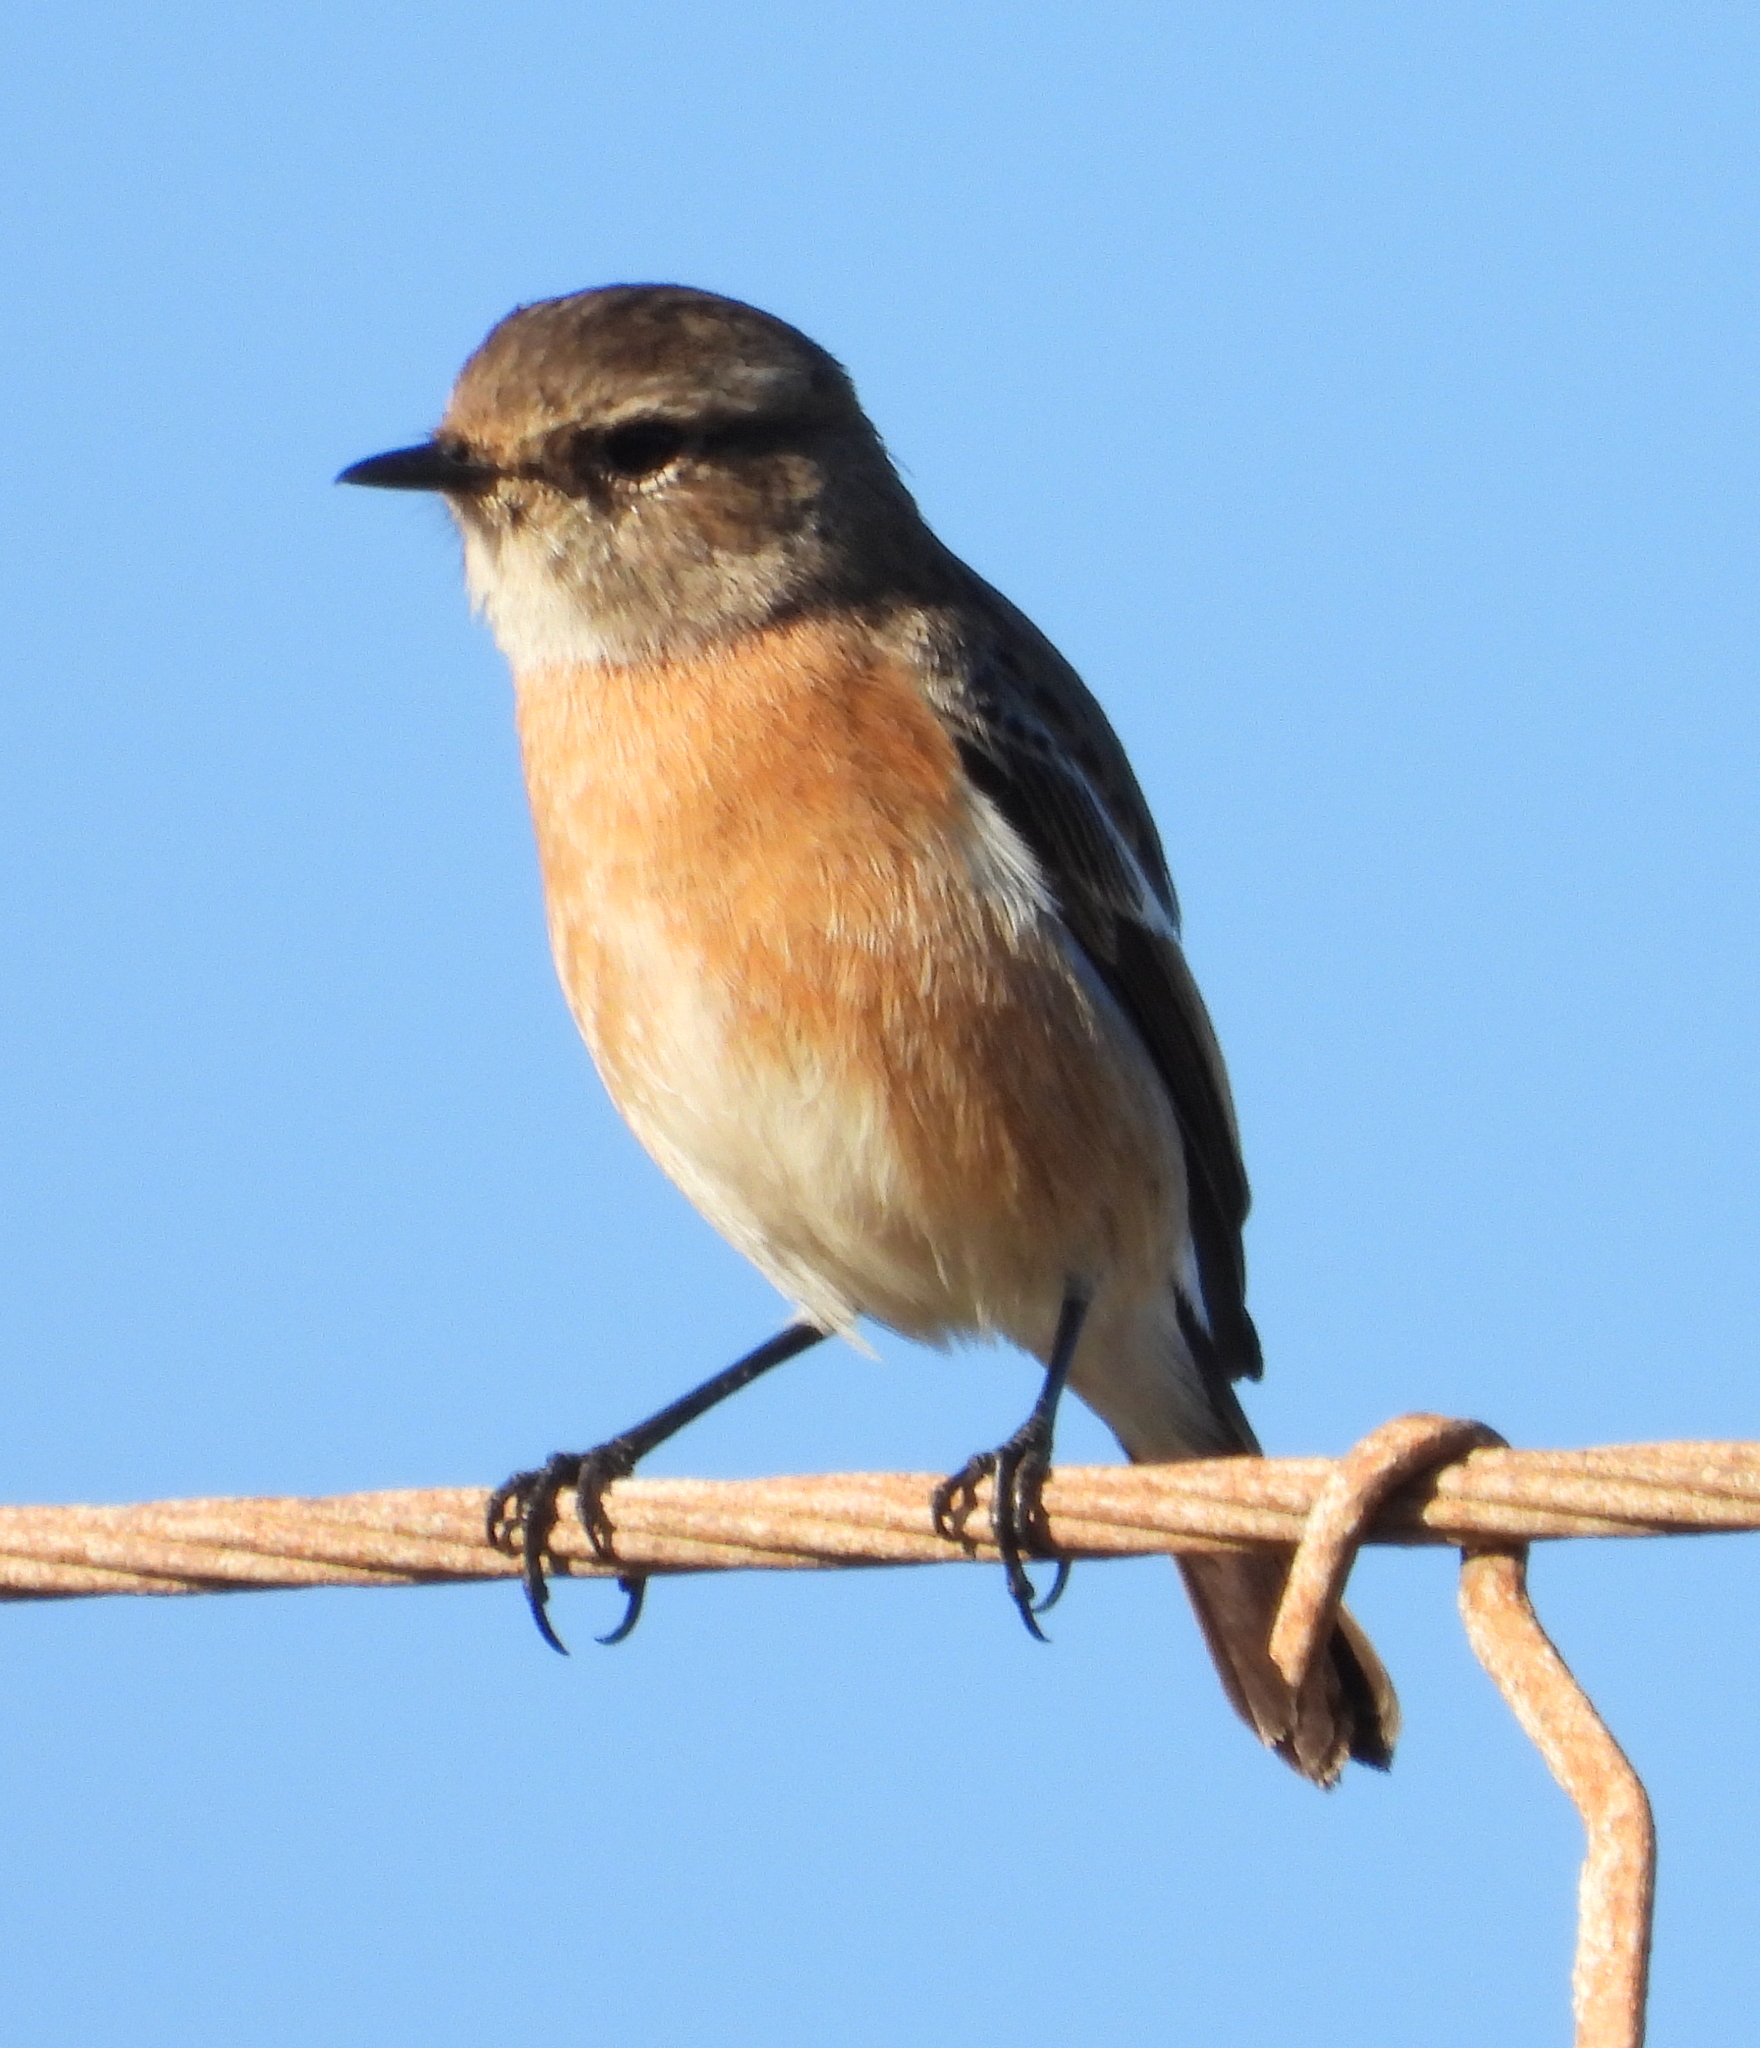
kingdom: Animalia
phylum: Chordata
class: Aves
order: Passeriformes
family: Muscicapidae
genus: Saxicola
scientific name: Saxicola torquatus
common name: African stonechat
